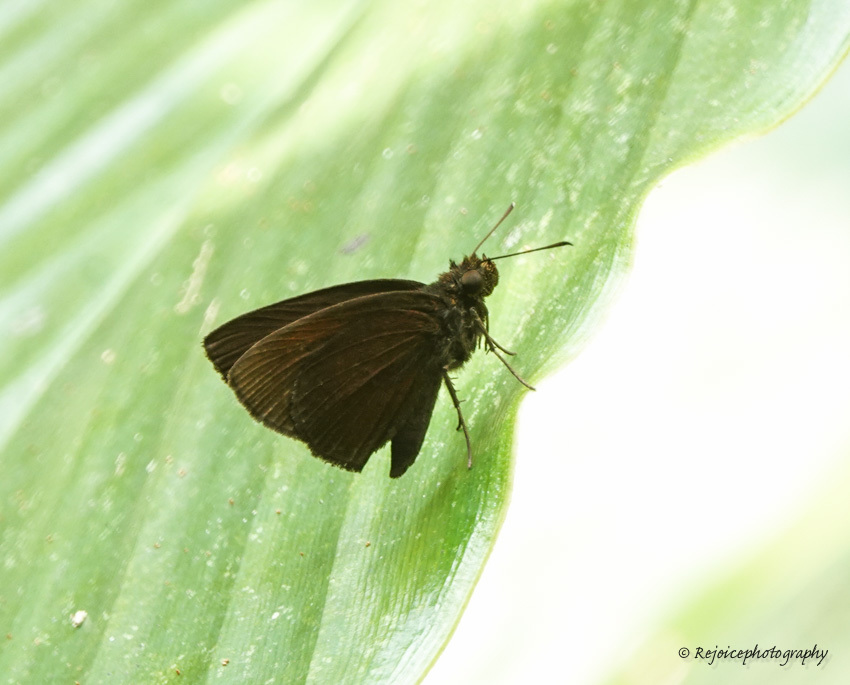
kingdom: Animalia
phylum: Arthropoda
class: Insecta
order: Lepidoptera
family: Hesperiidae
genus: Koruthaialos
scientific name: Koruthaialos butleri
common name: Dark velvet bob
